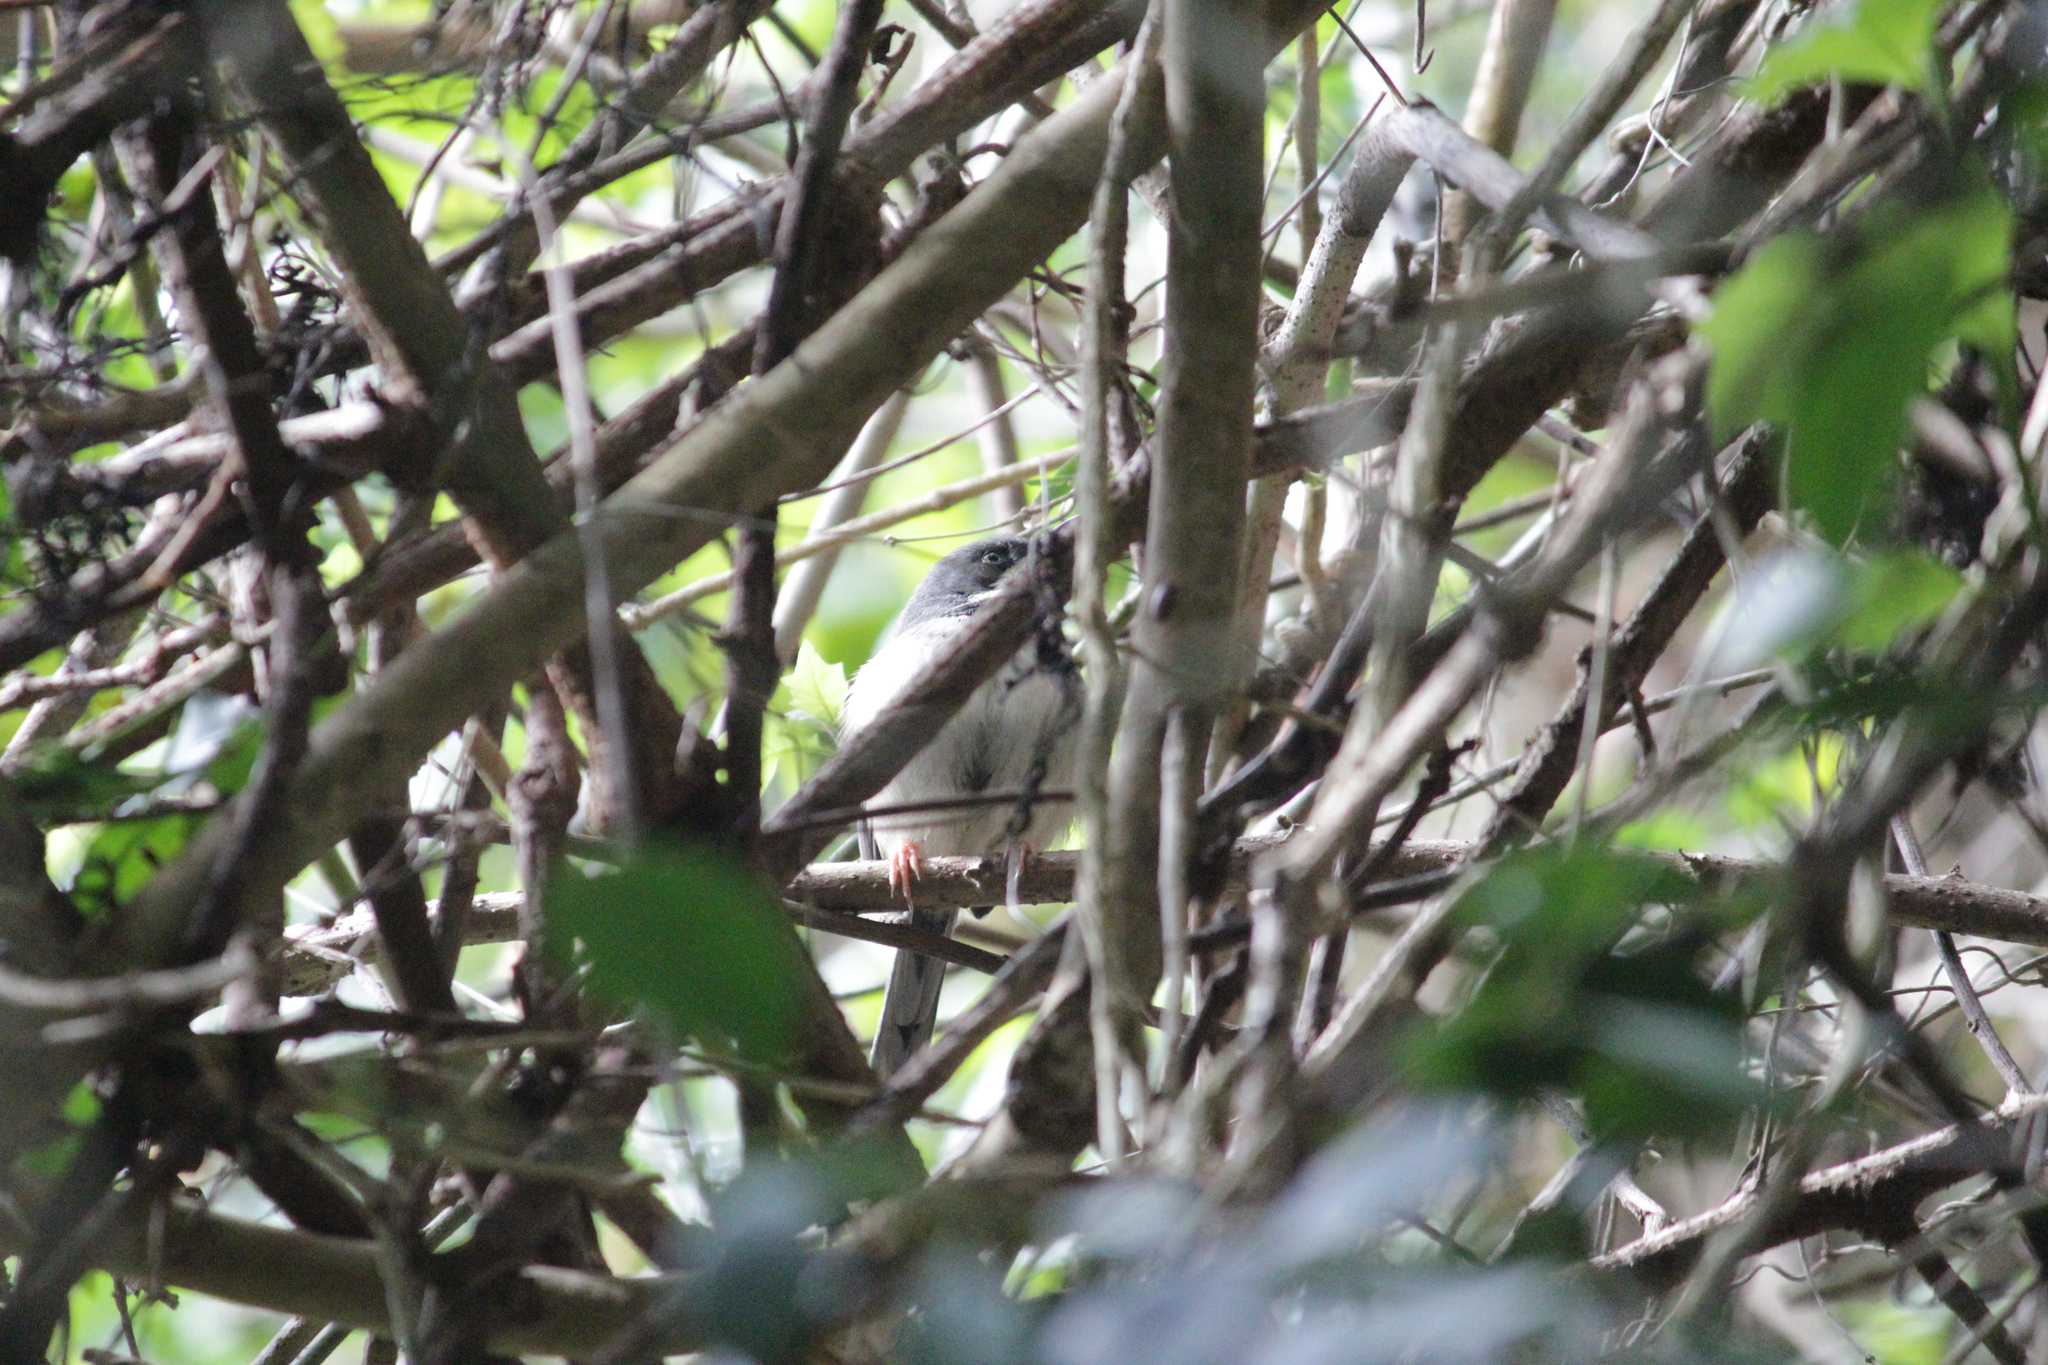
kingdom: Animalia
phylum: Chordata
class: Aves
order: Passeriformes
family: Cisticolidae
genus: Apalis
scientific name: Apalis thoracica
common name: Bar-throated apalis
